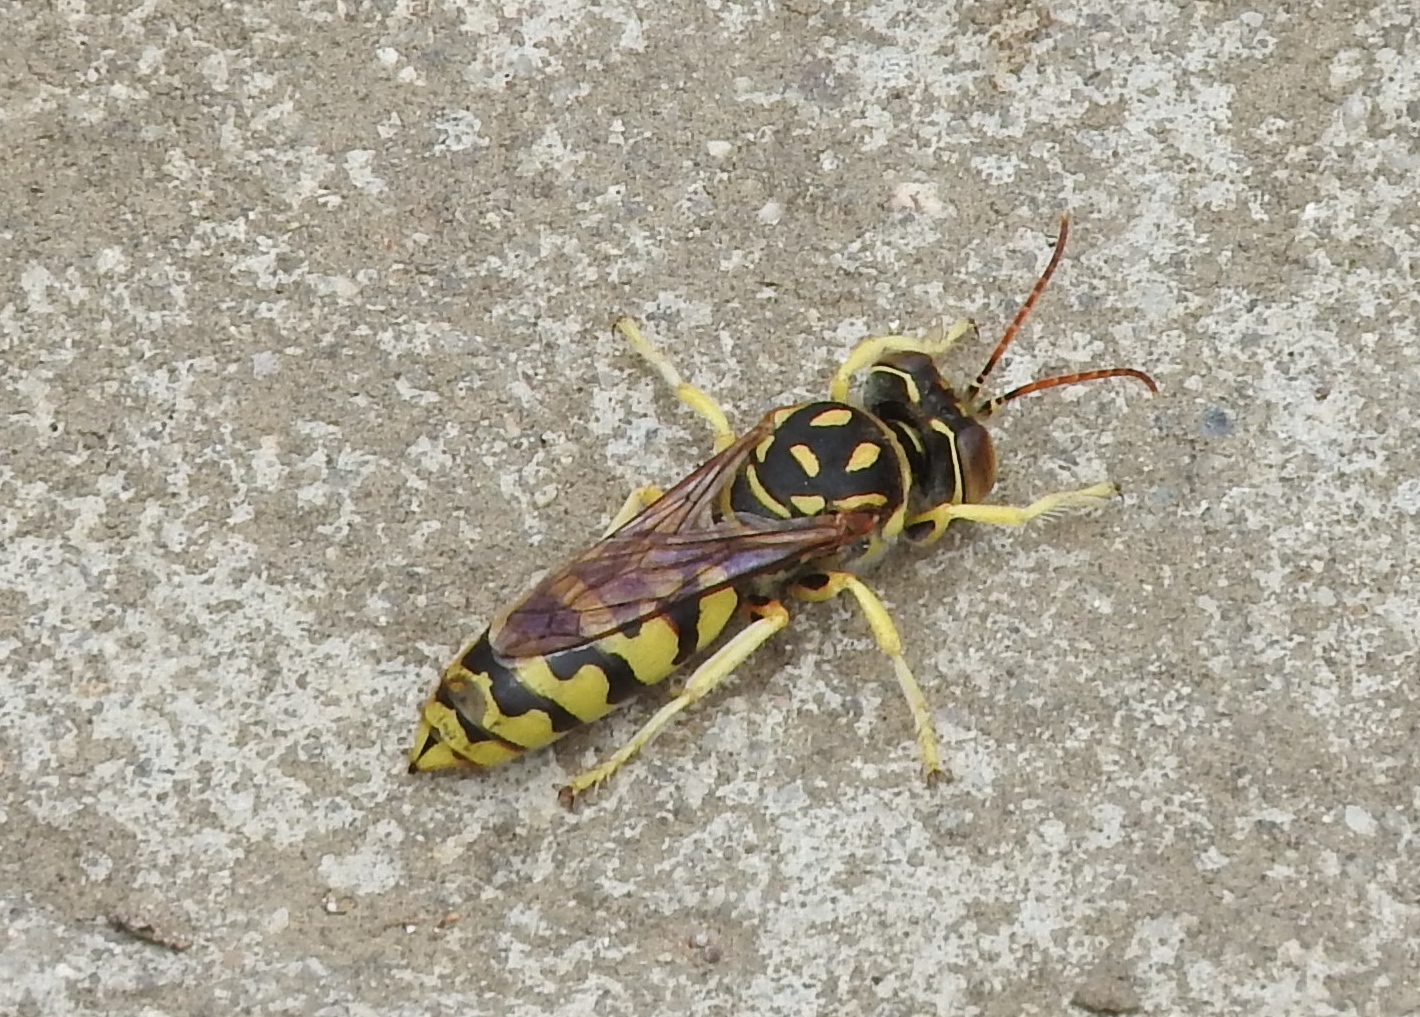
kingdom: Animalia
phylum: Arthropoda
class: Insecta
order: Hymenoptera
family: Crabronidae
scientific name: Crabronidae
